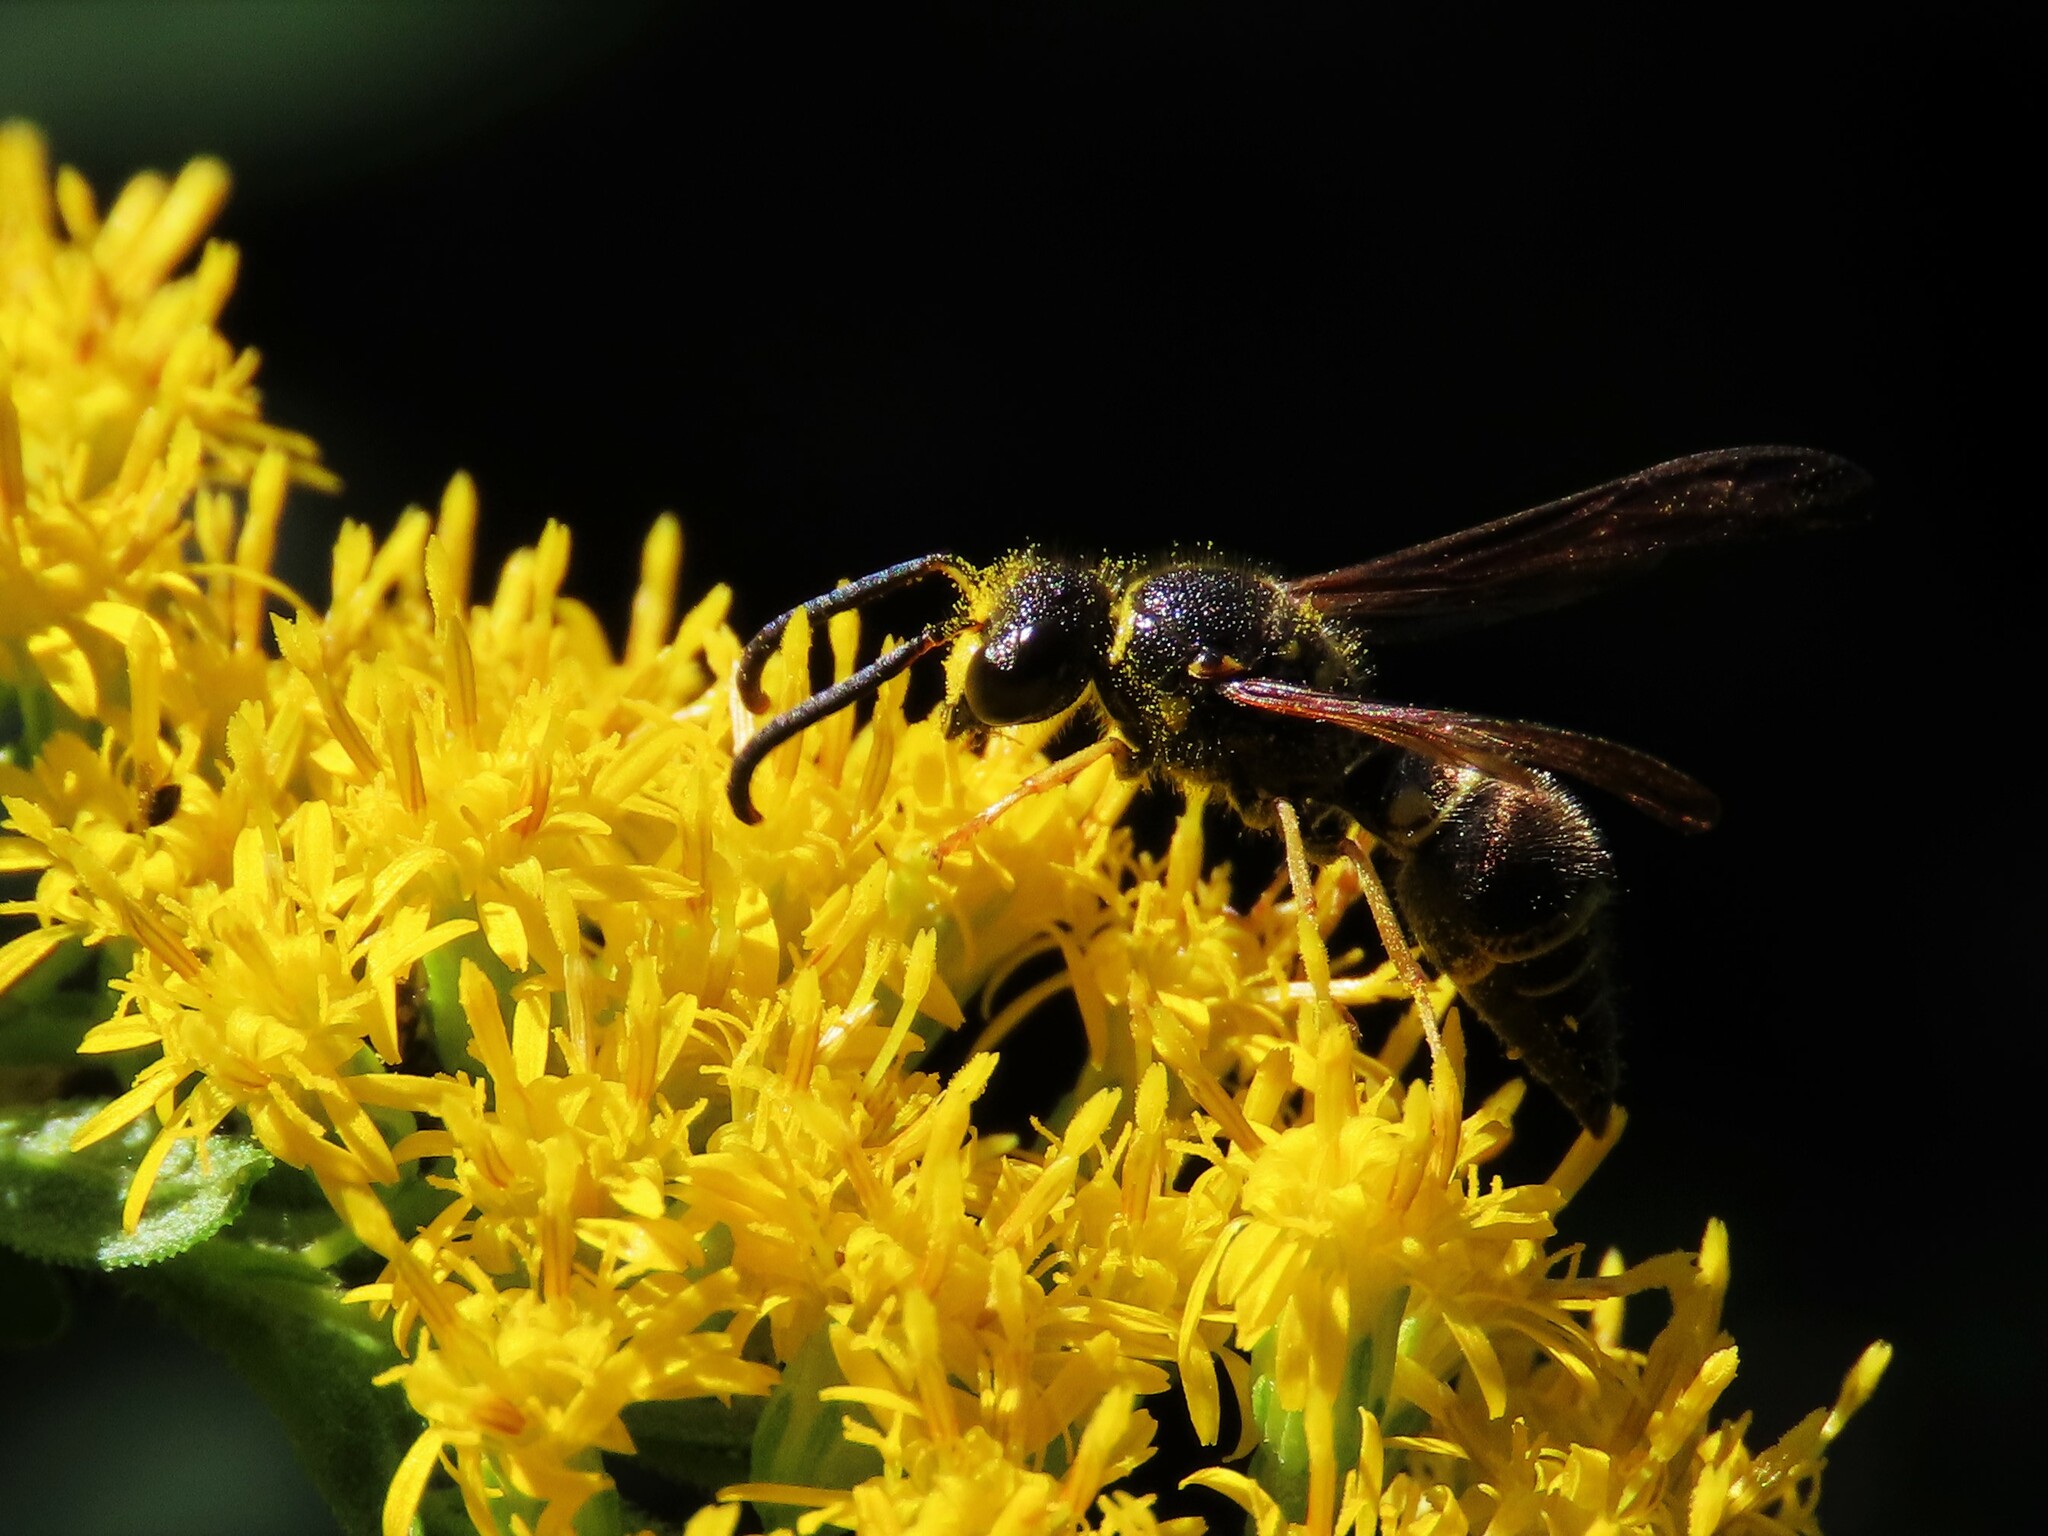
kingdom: Animalia
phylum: Arthropoda
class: Insecta
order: Hymenoptera
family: Vespidae
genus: Ancistrocerus
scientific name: Ancistrocerus campestris
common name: Smiling mason wasp
